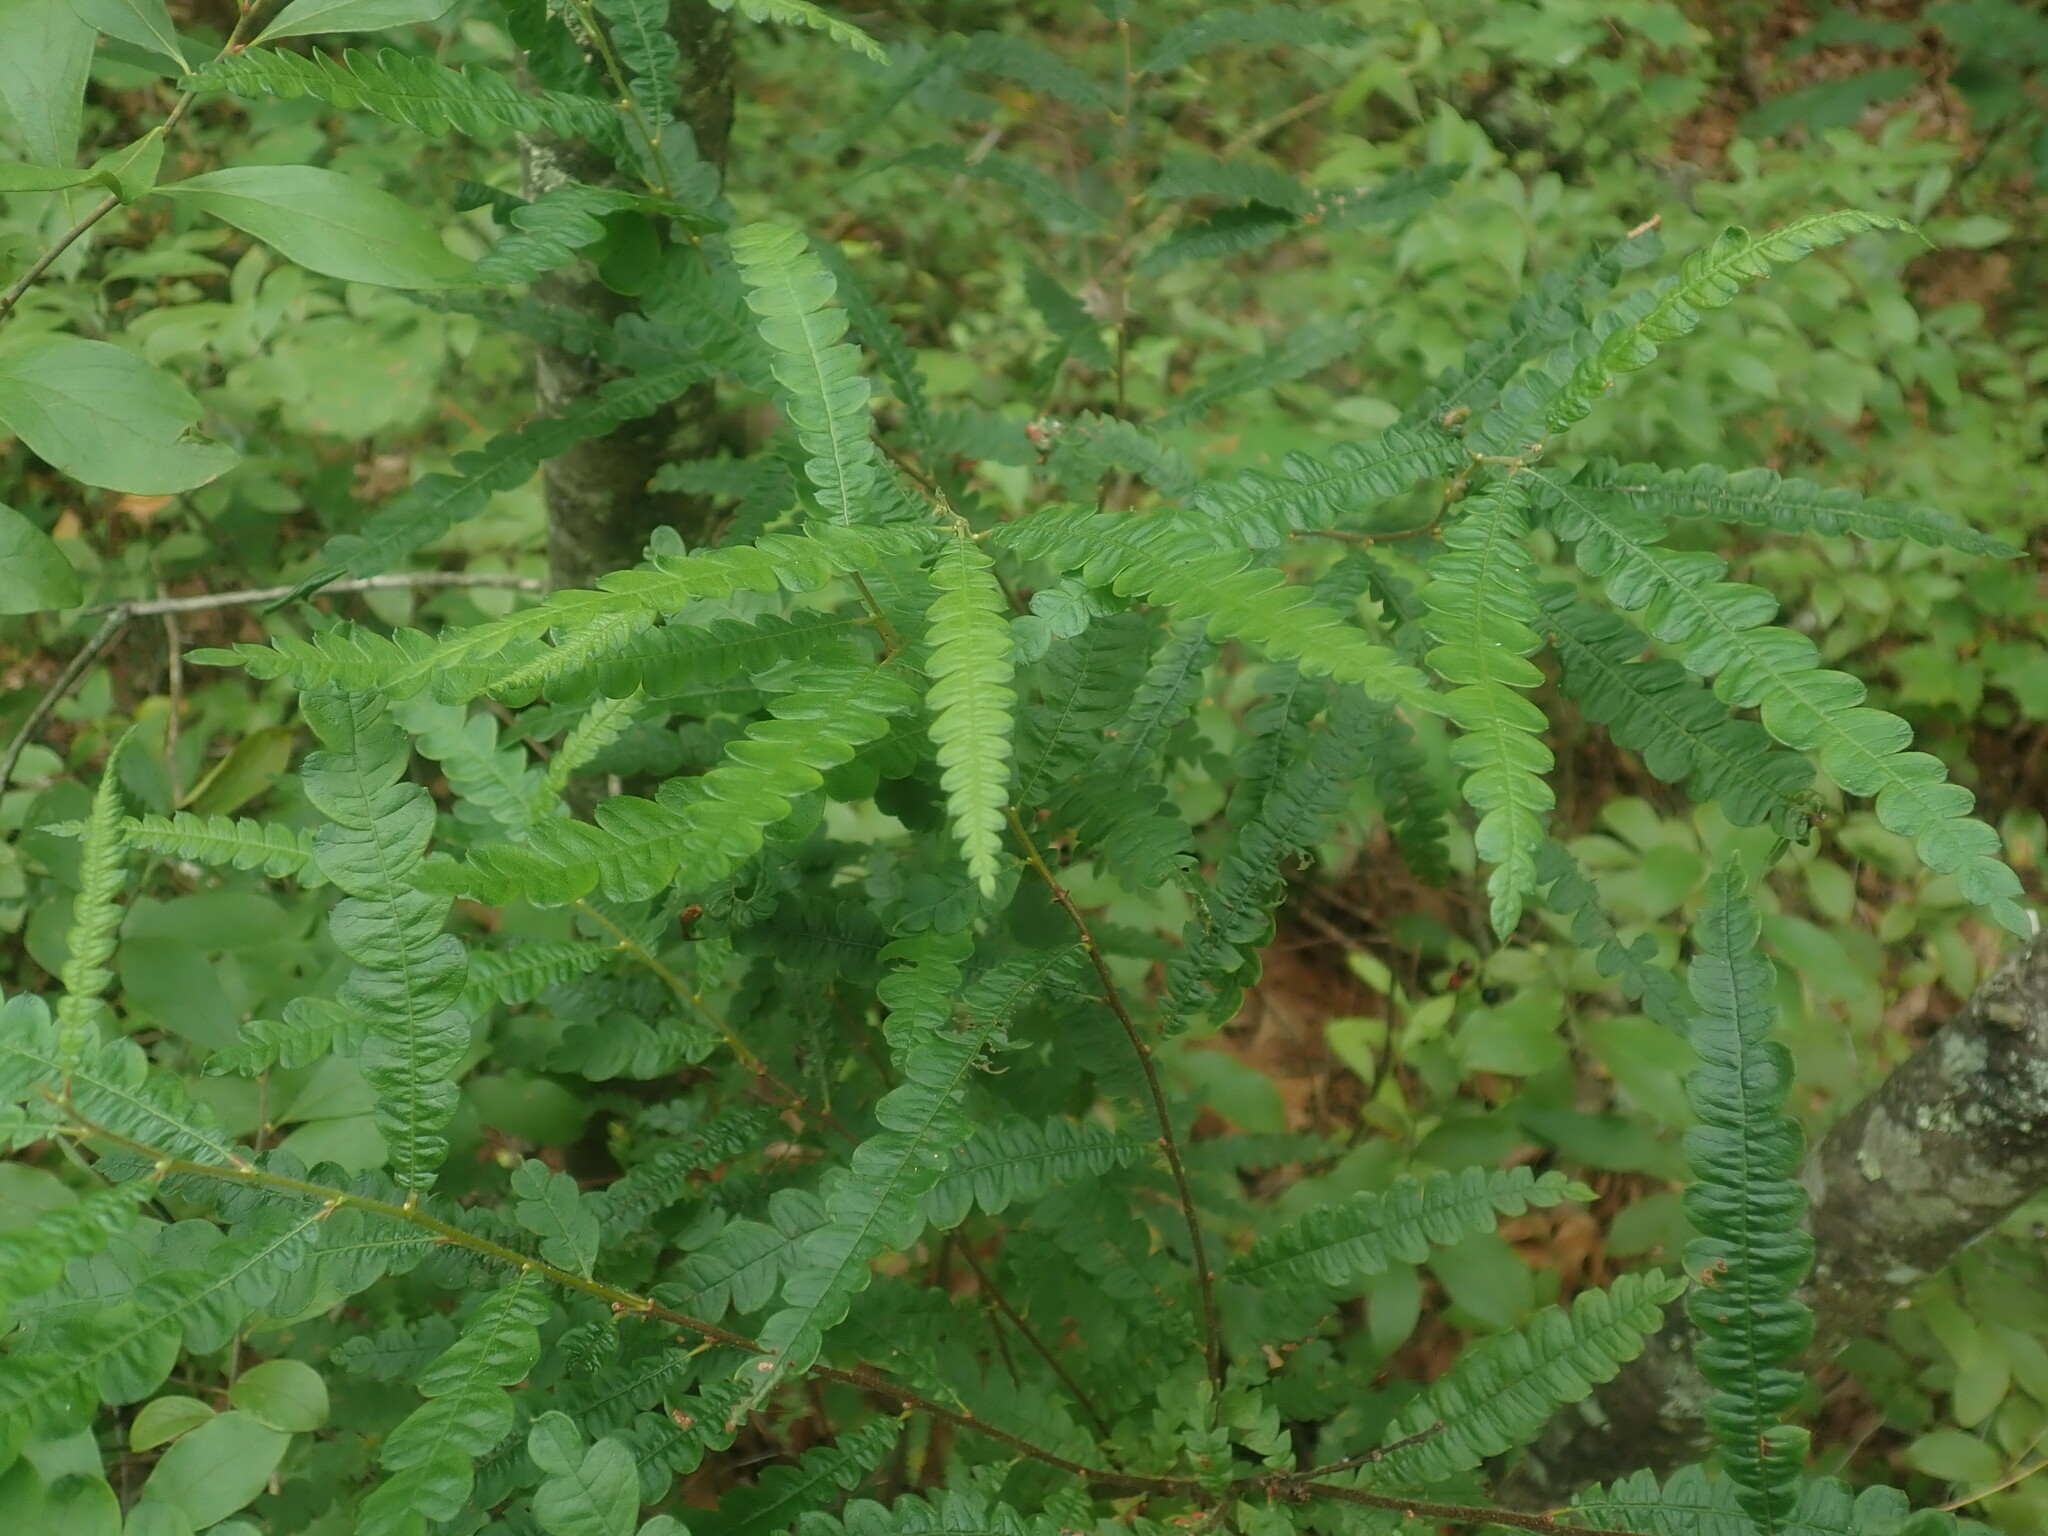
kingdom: Plantae
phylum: Tracheophyta
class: Magnoliopsida
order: Fagales
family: Myricaceae
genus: Comptonia
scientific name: Comptonia peregrina
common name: Sweet-fern
